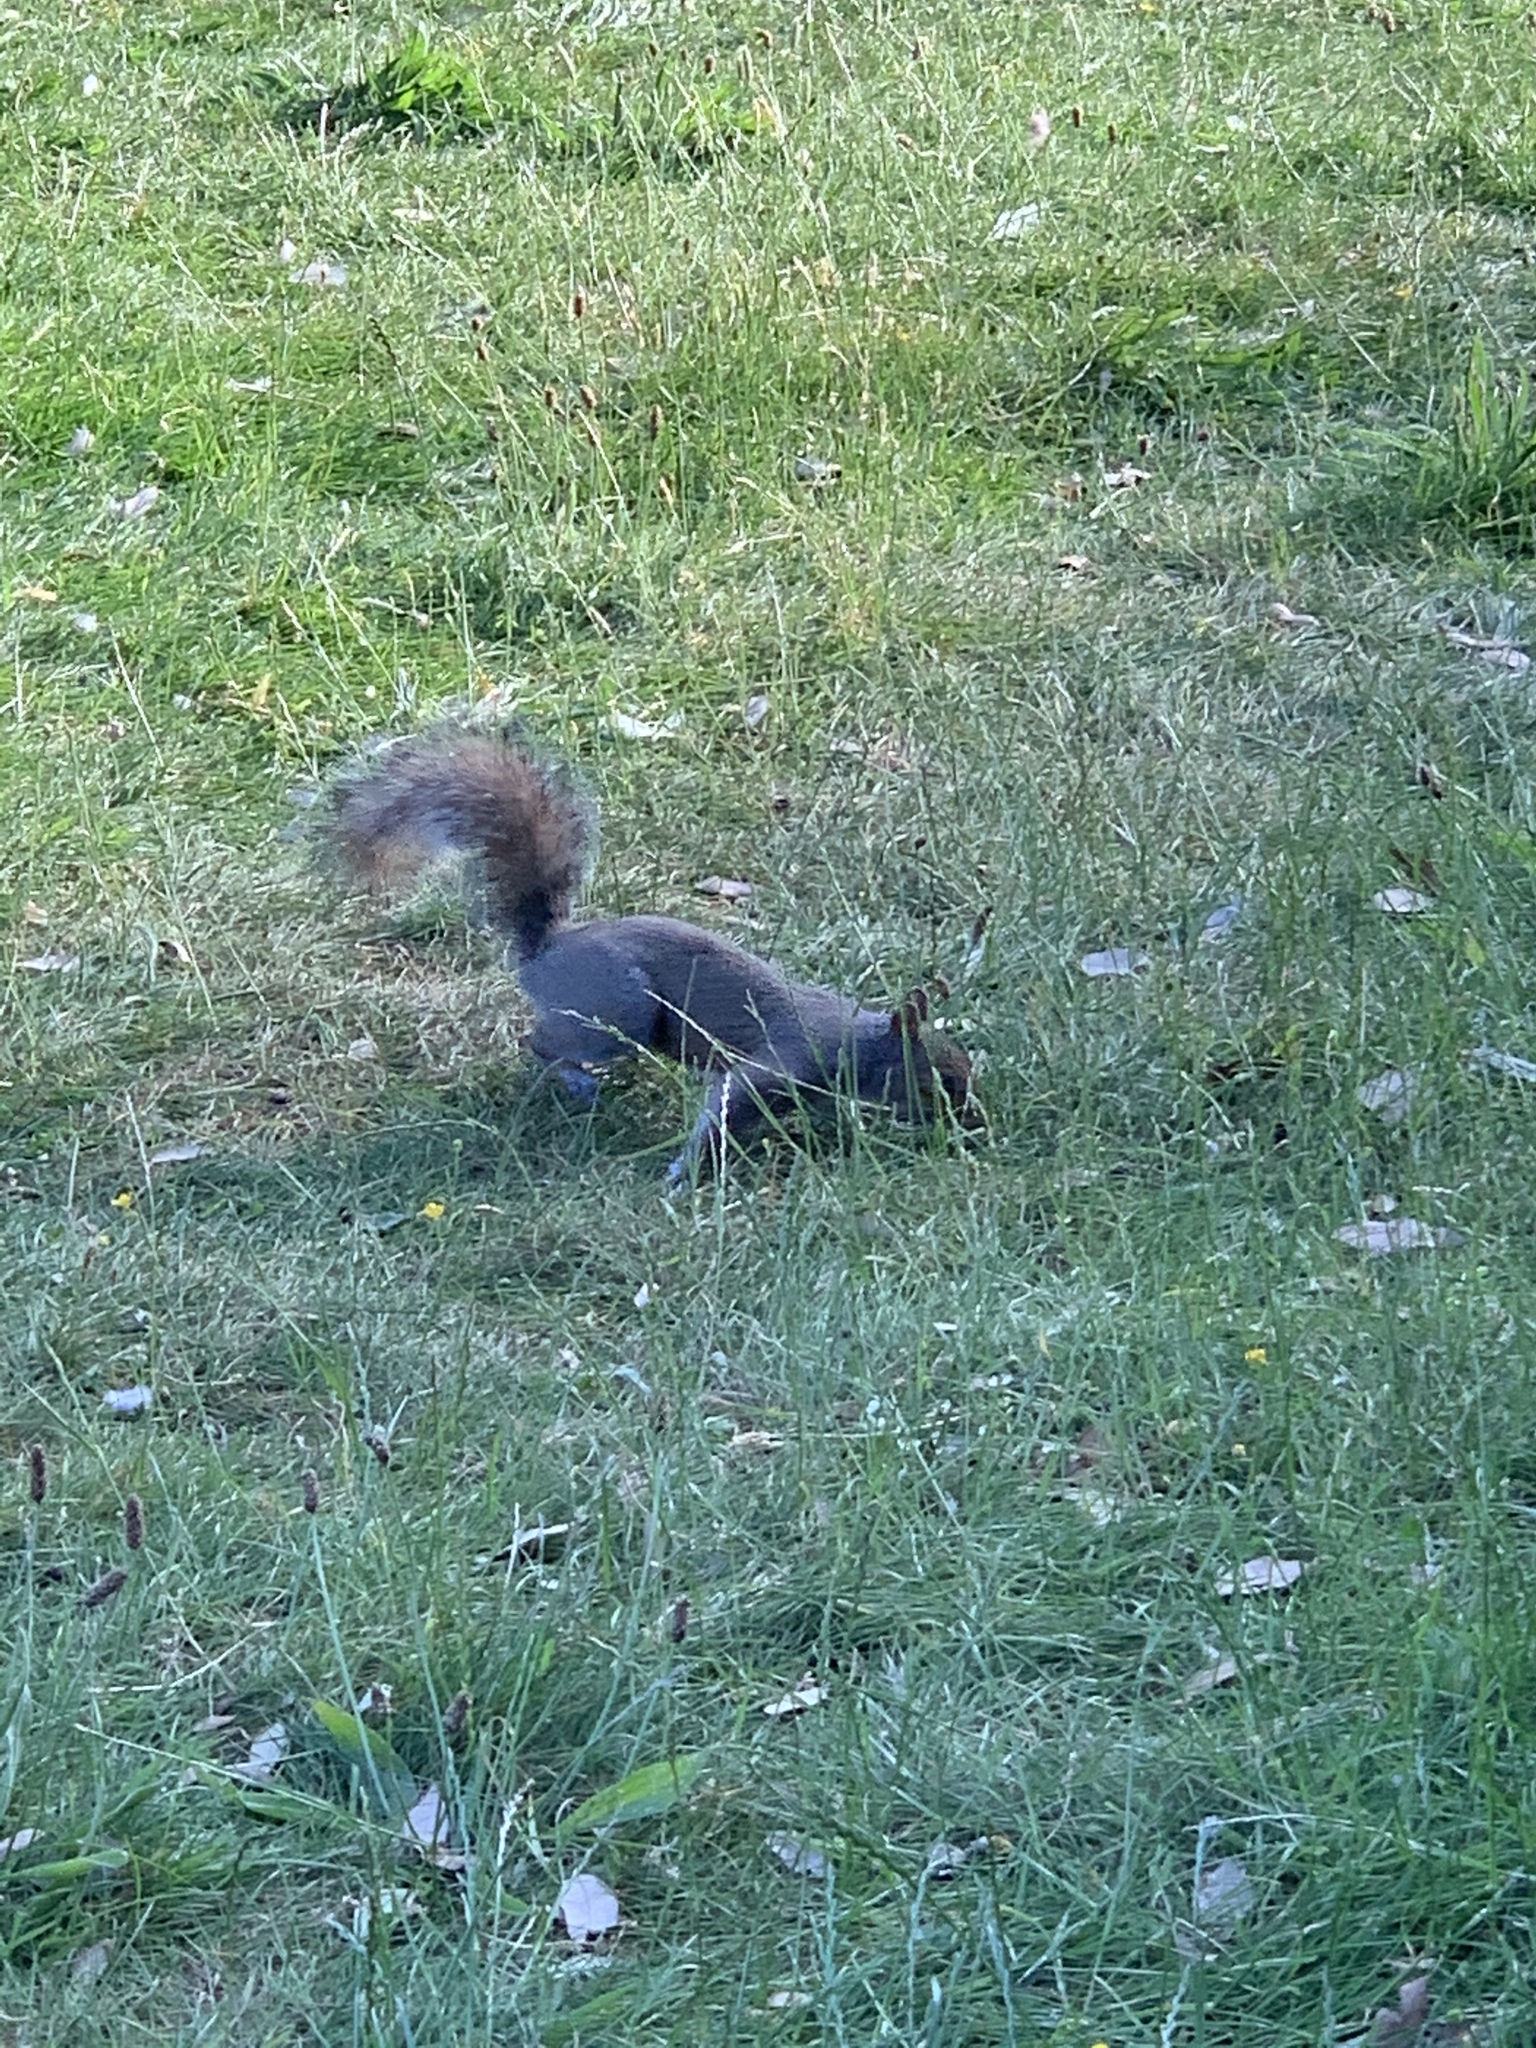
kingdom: Animalia
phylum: Chordata
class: Mammalia
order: Rodentia
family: Sciuridae
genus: Sciurus
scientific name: Sciurus carolinensis
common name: Eastern gray squirrel
